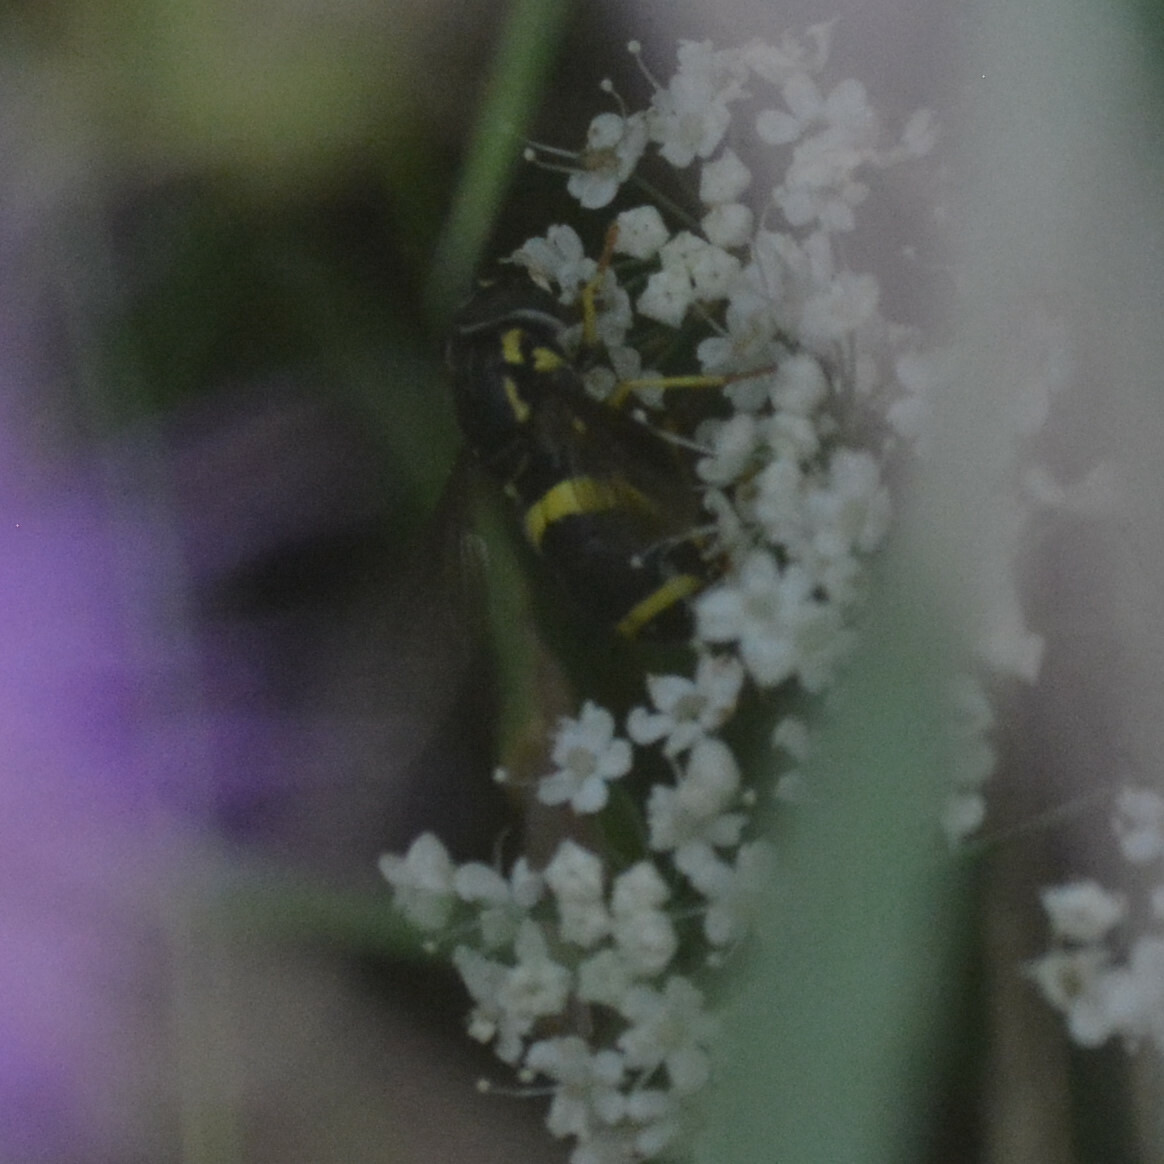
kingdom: Animalia
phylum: Arthropoda
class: Insecta
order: Diptera
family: Syrphidae
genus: Chrysotoxum
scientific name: Chrysotoxum bicincta
